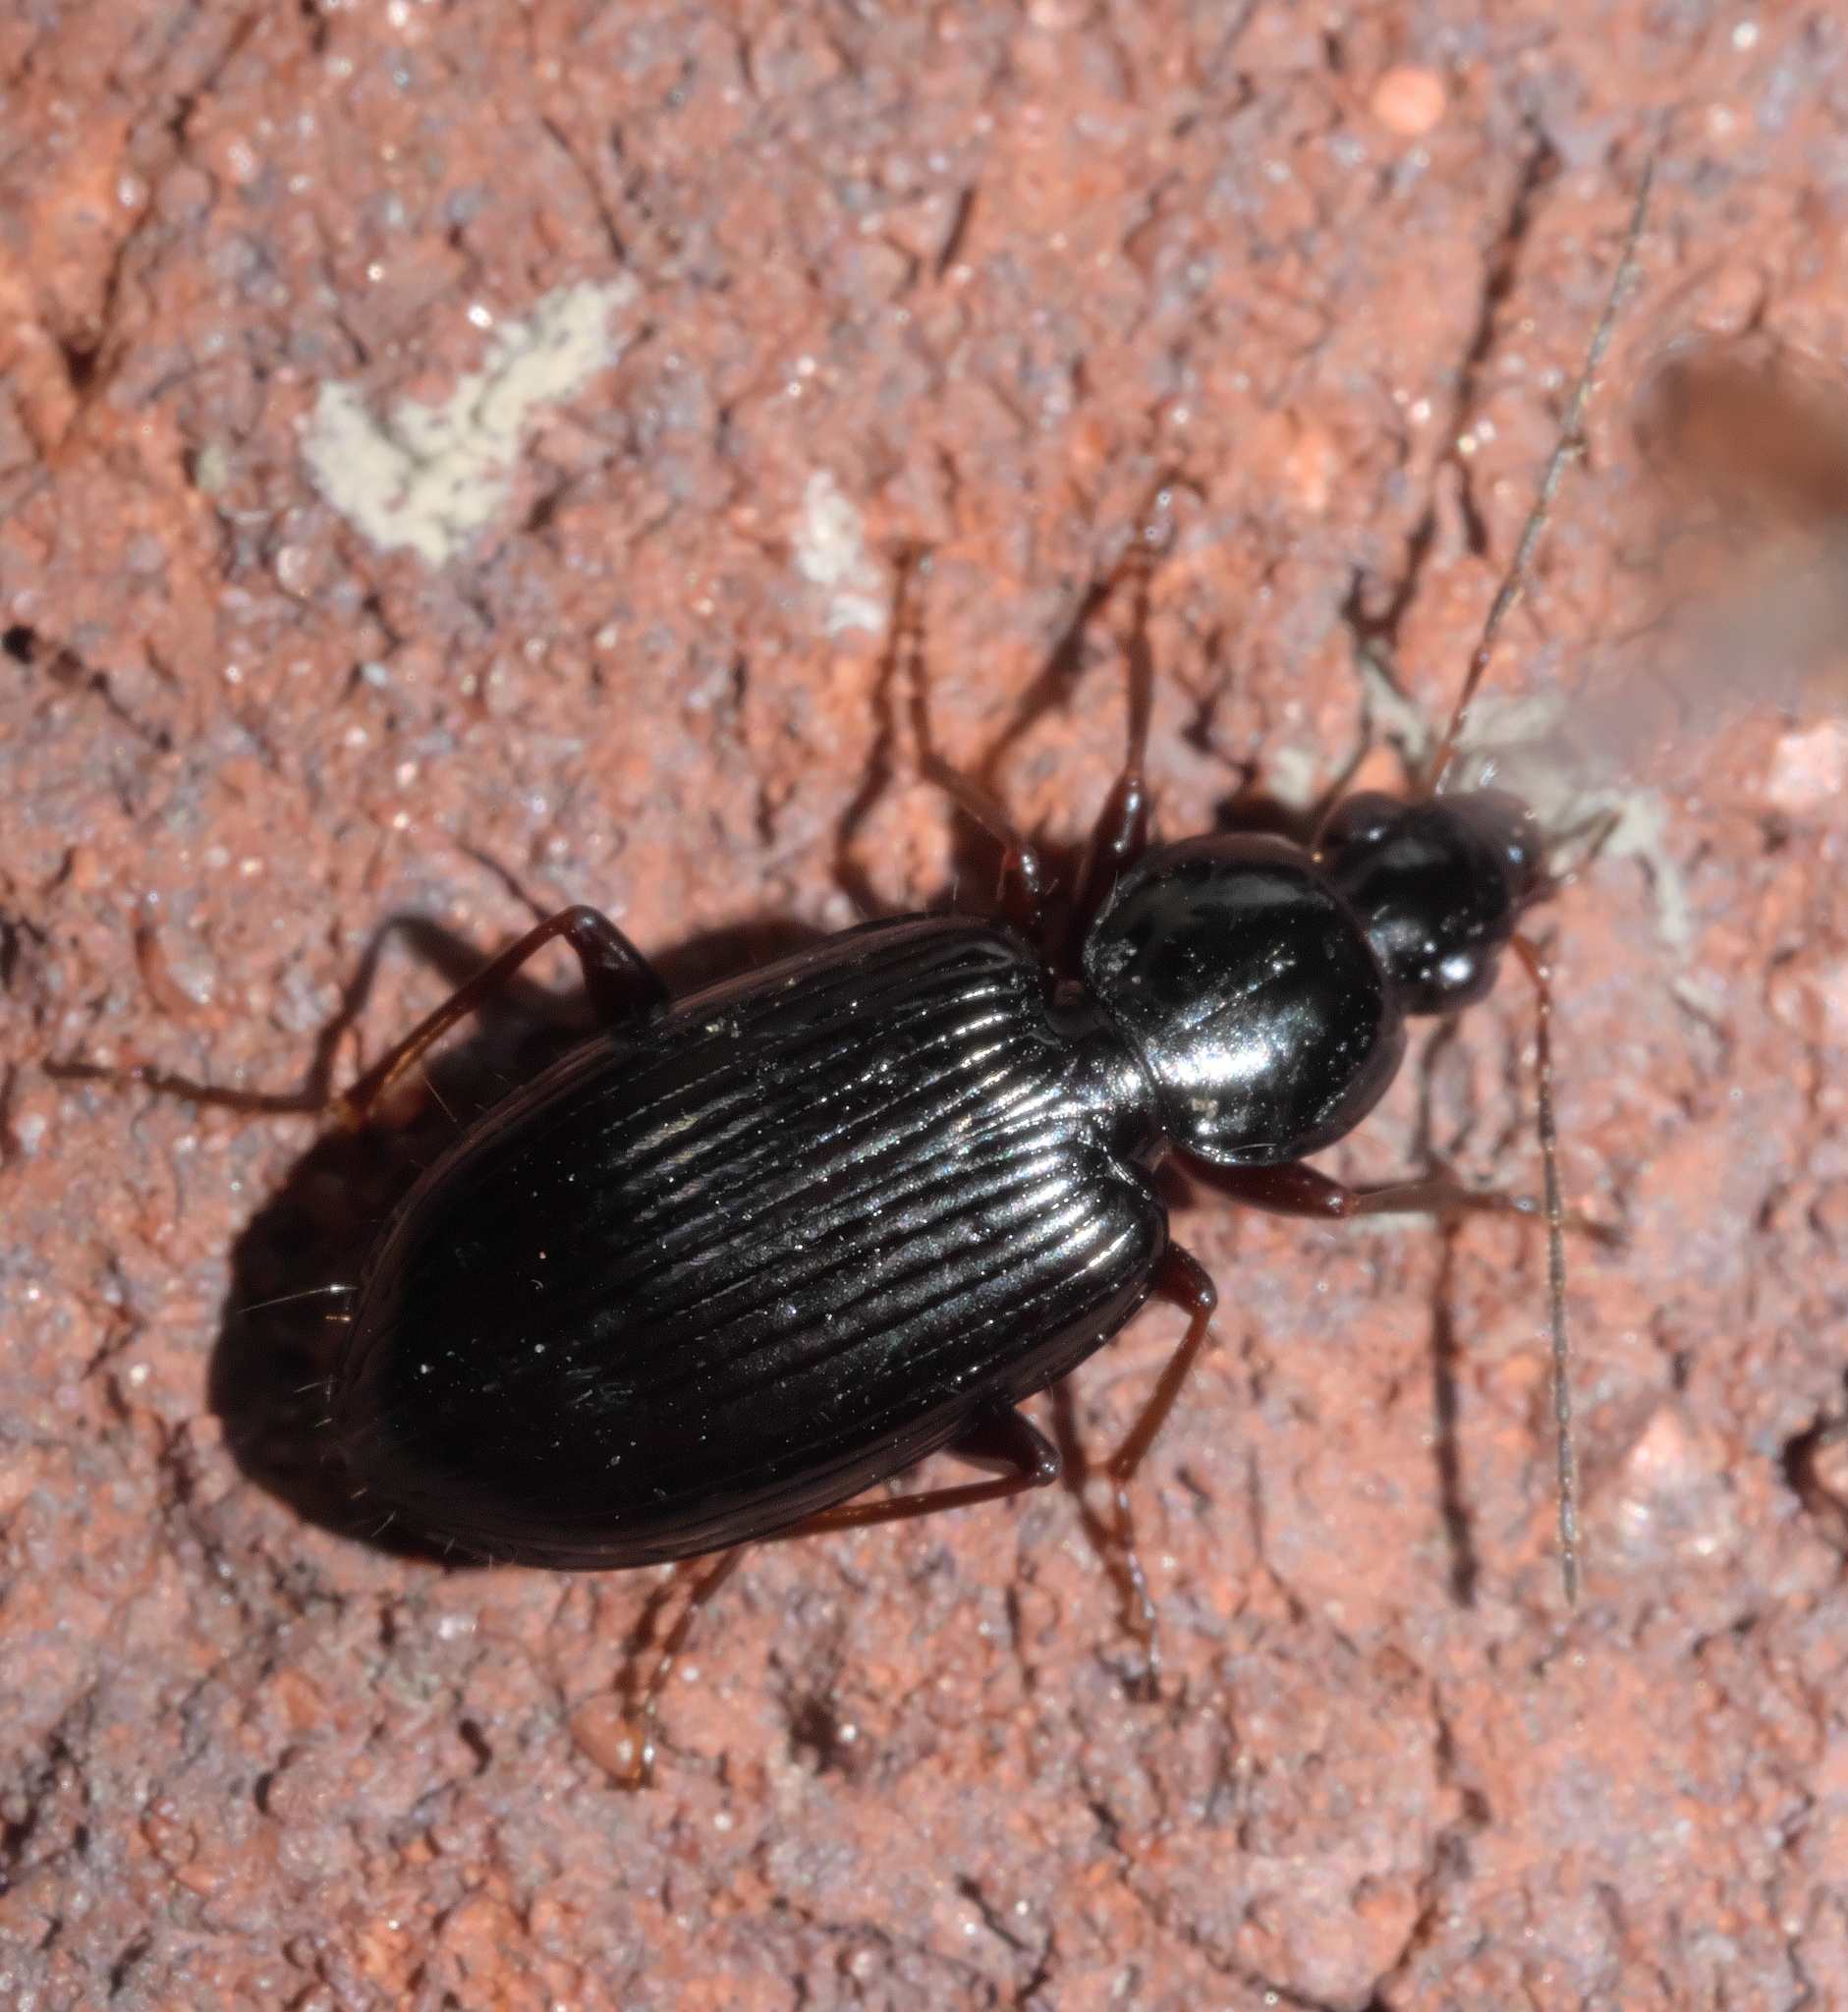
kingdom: Animalia
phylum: Arthropoda
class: Insecta
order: Coleoptera
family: Carabidae
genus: Agonum
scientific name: Agonum punctiforme
